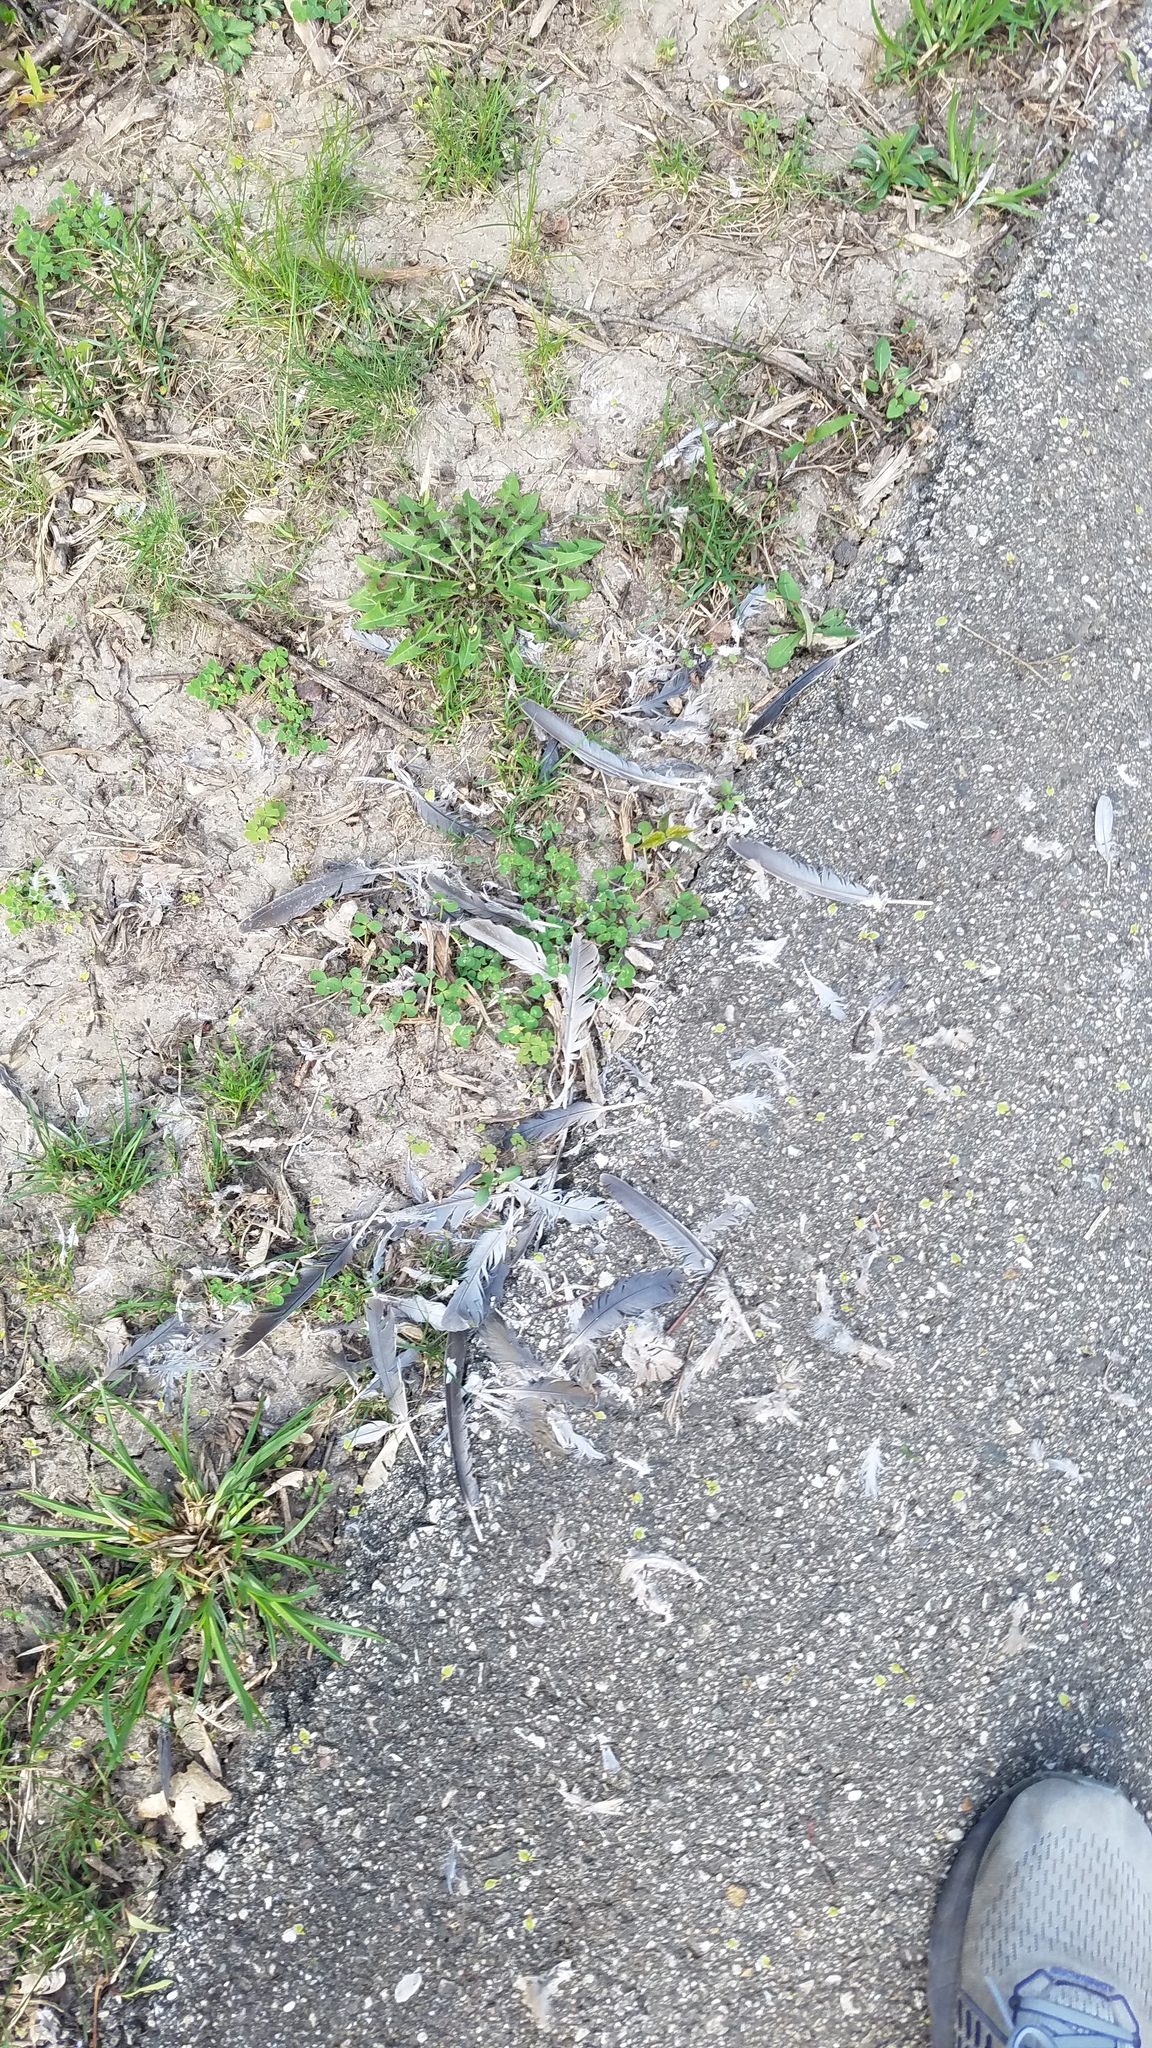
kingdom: Animalia
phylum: Chordata
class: Aves
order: Columbiformes
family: Columbidae
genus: Zenaida
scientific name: Zenaida macroura
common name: Mourning dove
